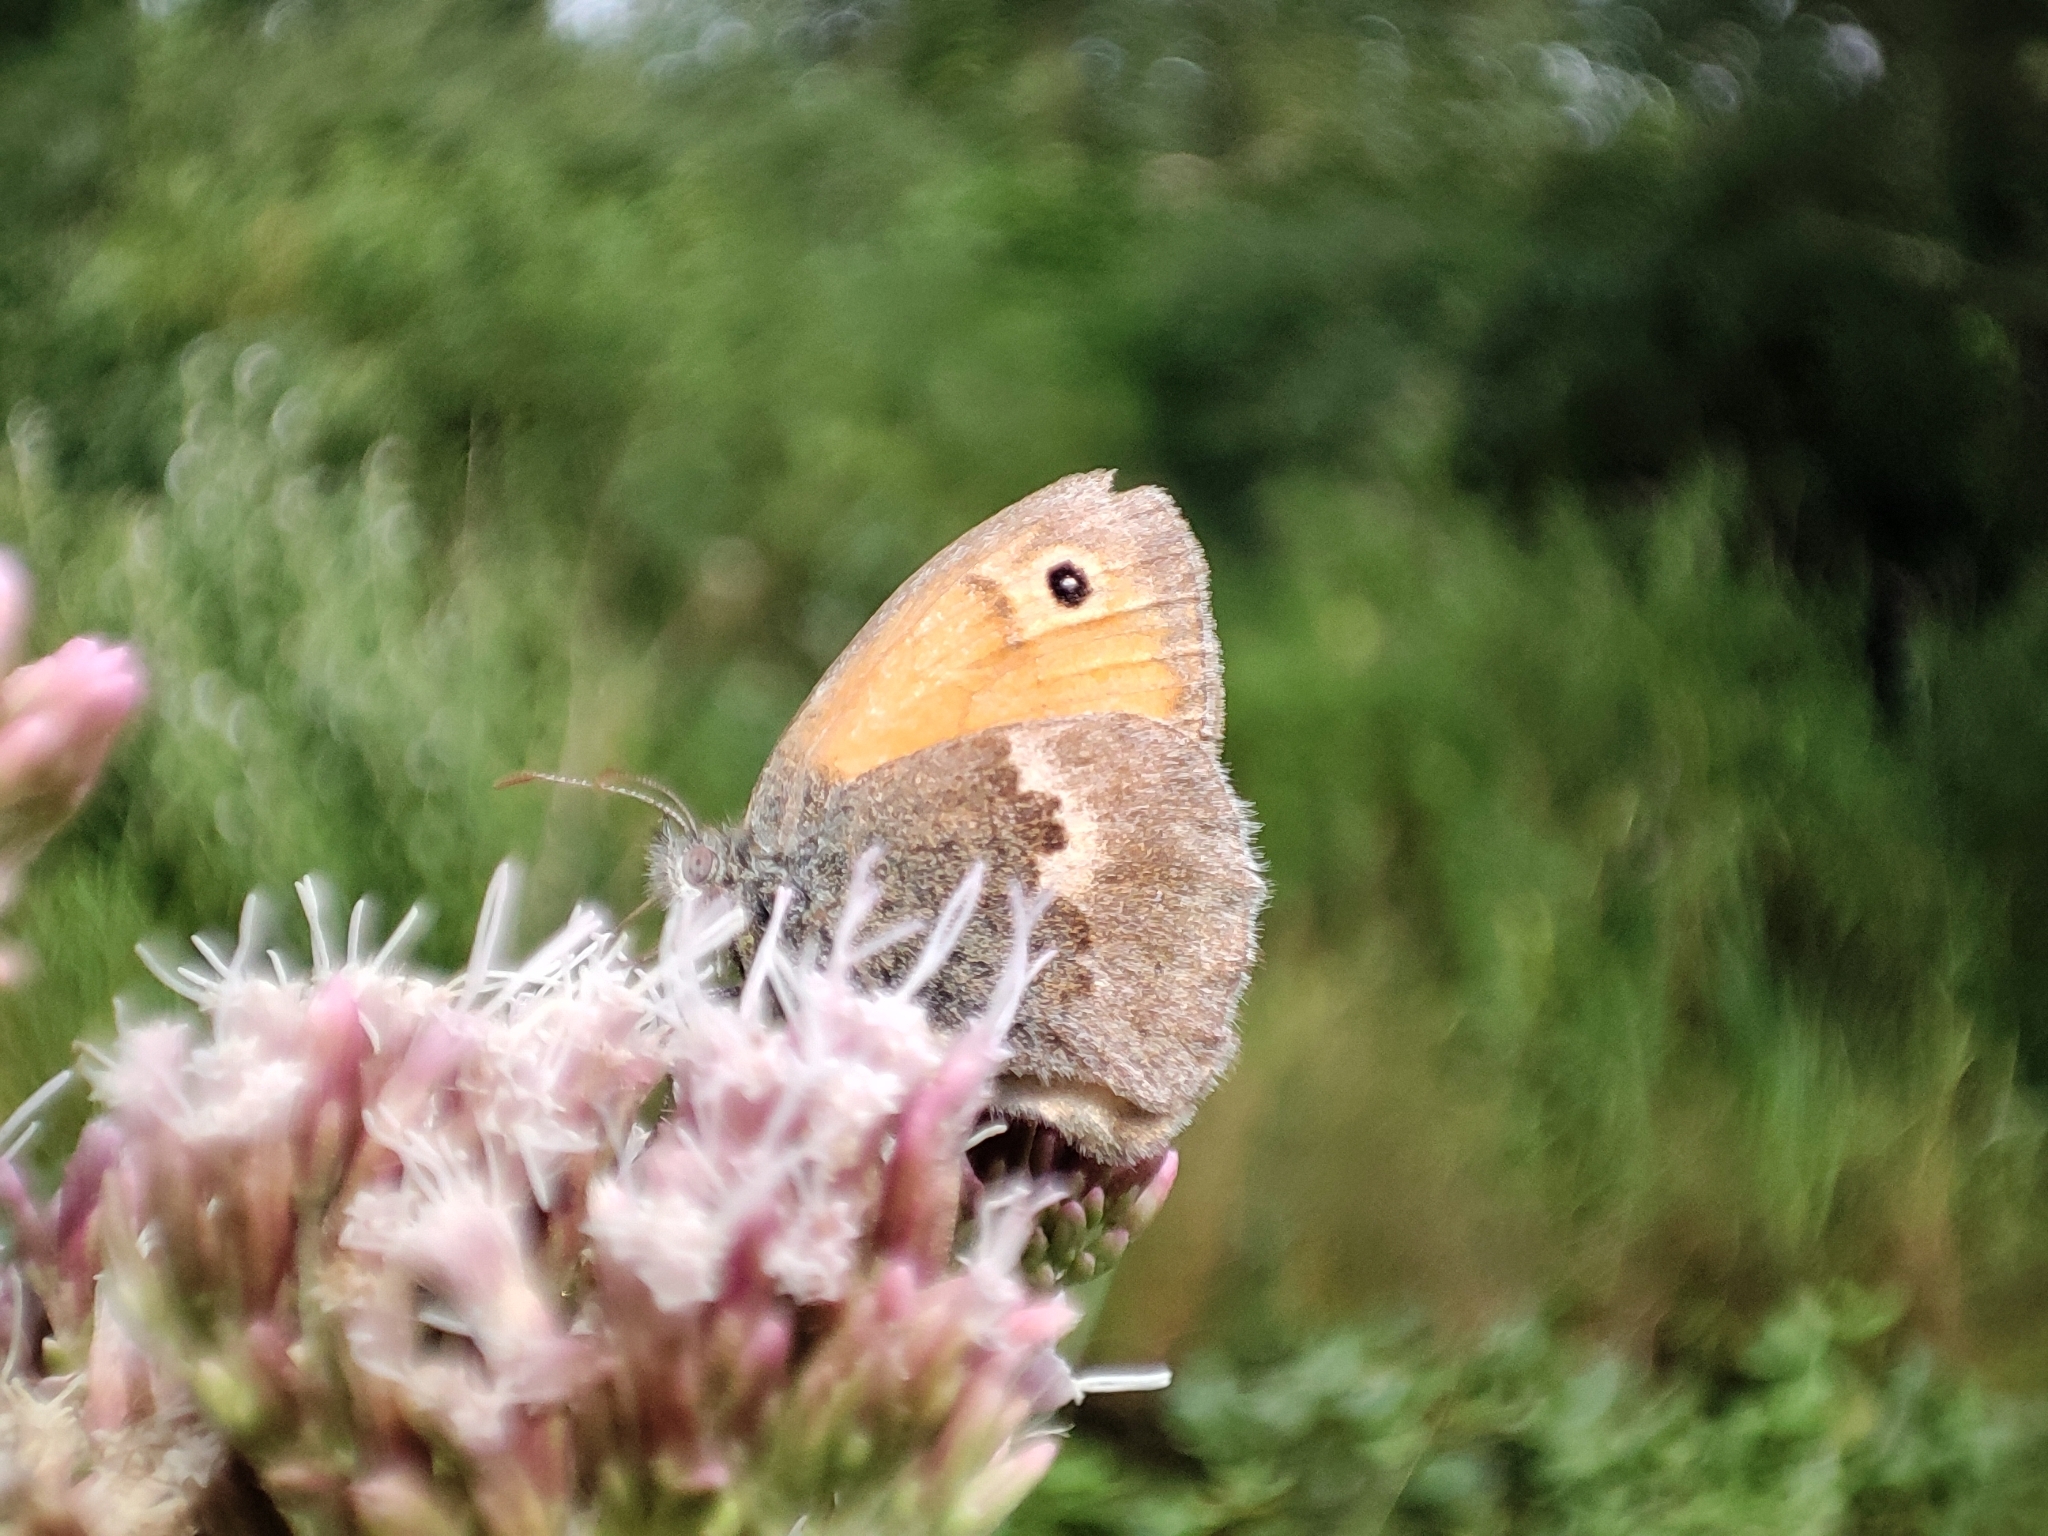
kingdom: Animalia
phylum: Arthropoda
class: Insecta
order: Lepidoptera
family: Nymphalidae
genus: Coenonympha
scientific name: Coenonympha pamphilus
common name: Small heath
